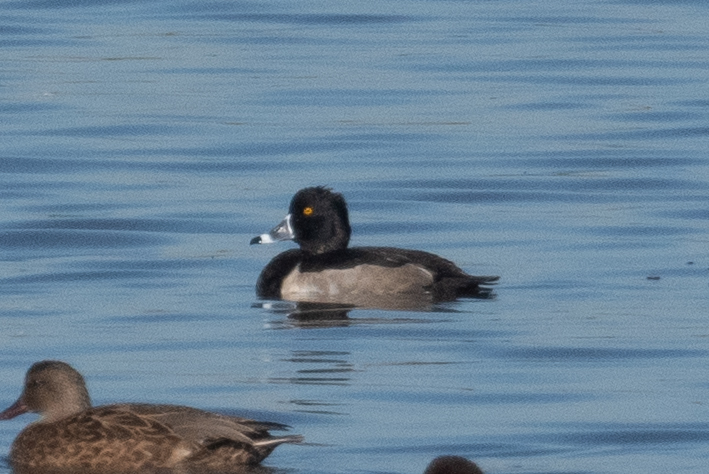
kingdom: Animalia
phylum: Chordata
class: Aves
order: Anseriformes
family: Anatidae
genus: Aythya
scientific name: Aythya collaris
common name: Ring-necked duck
